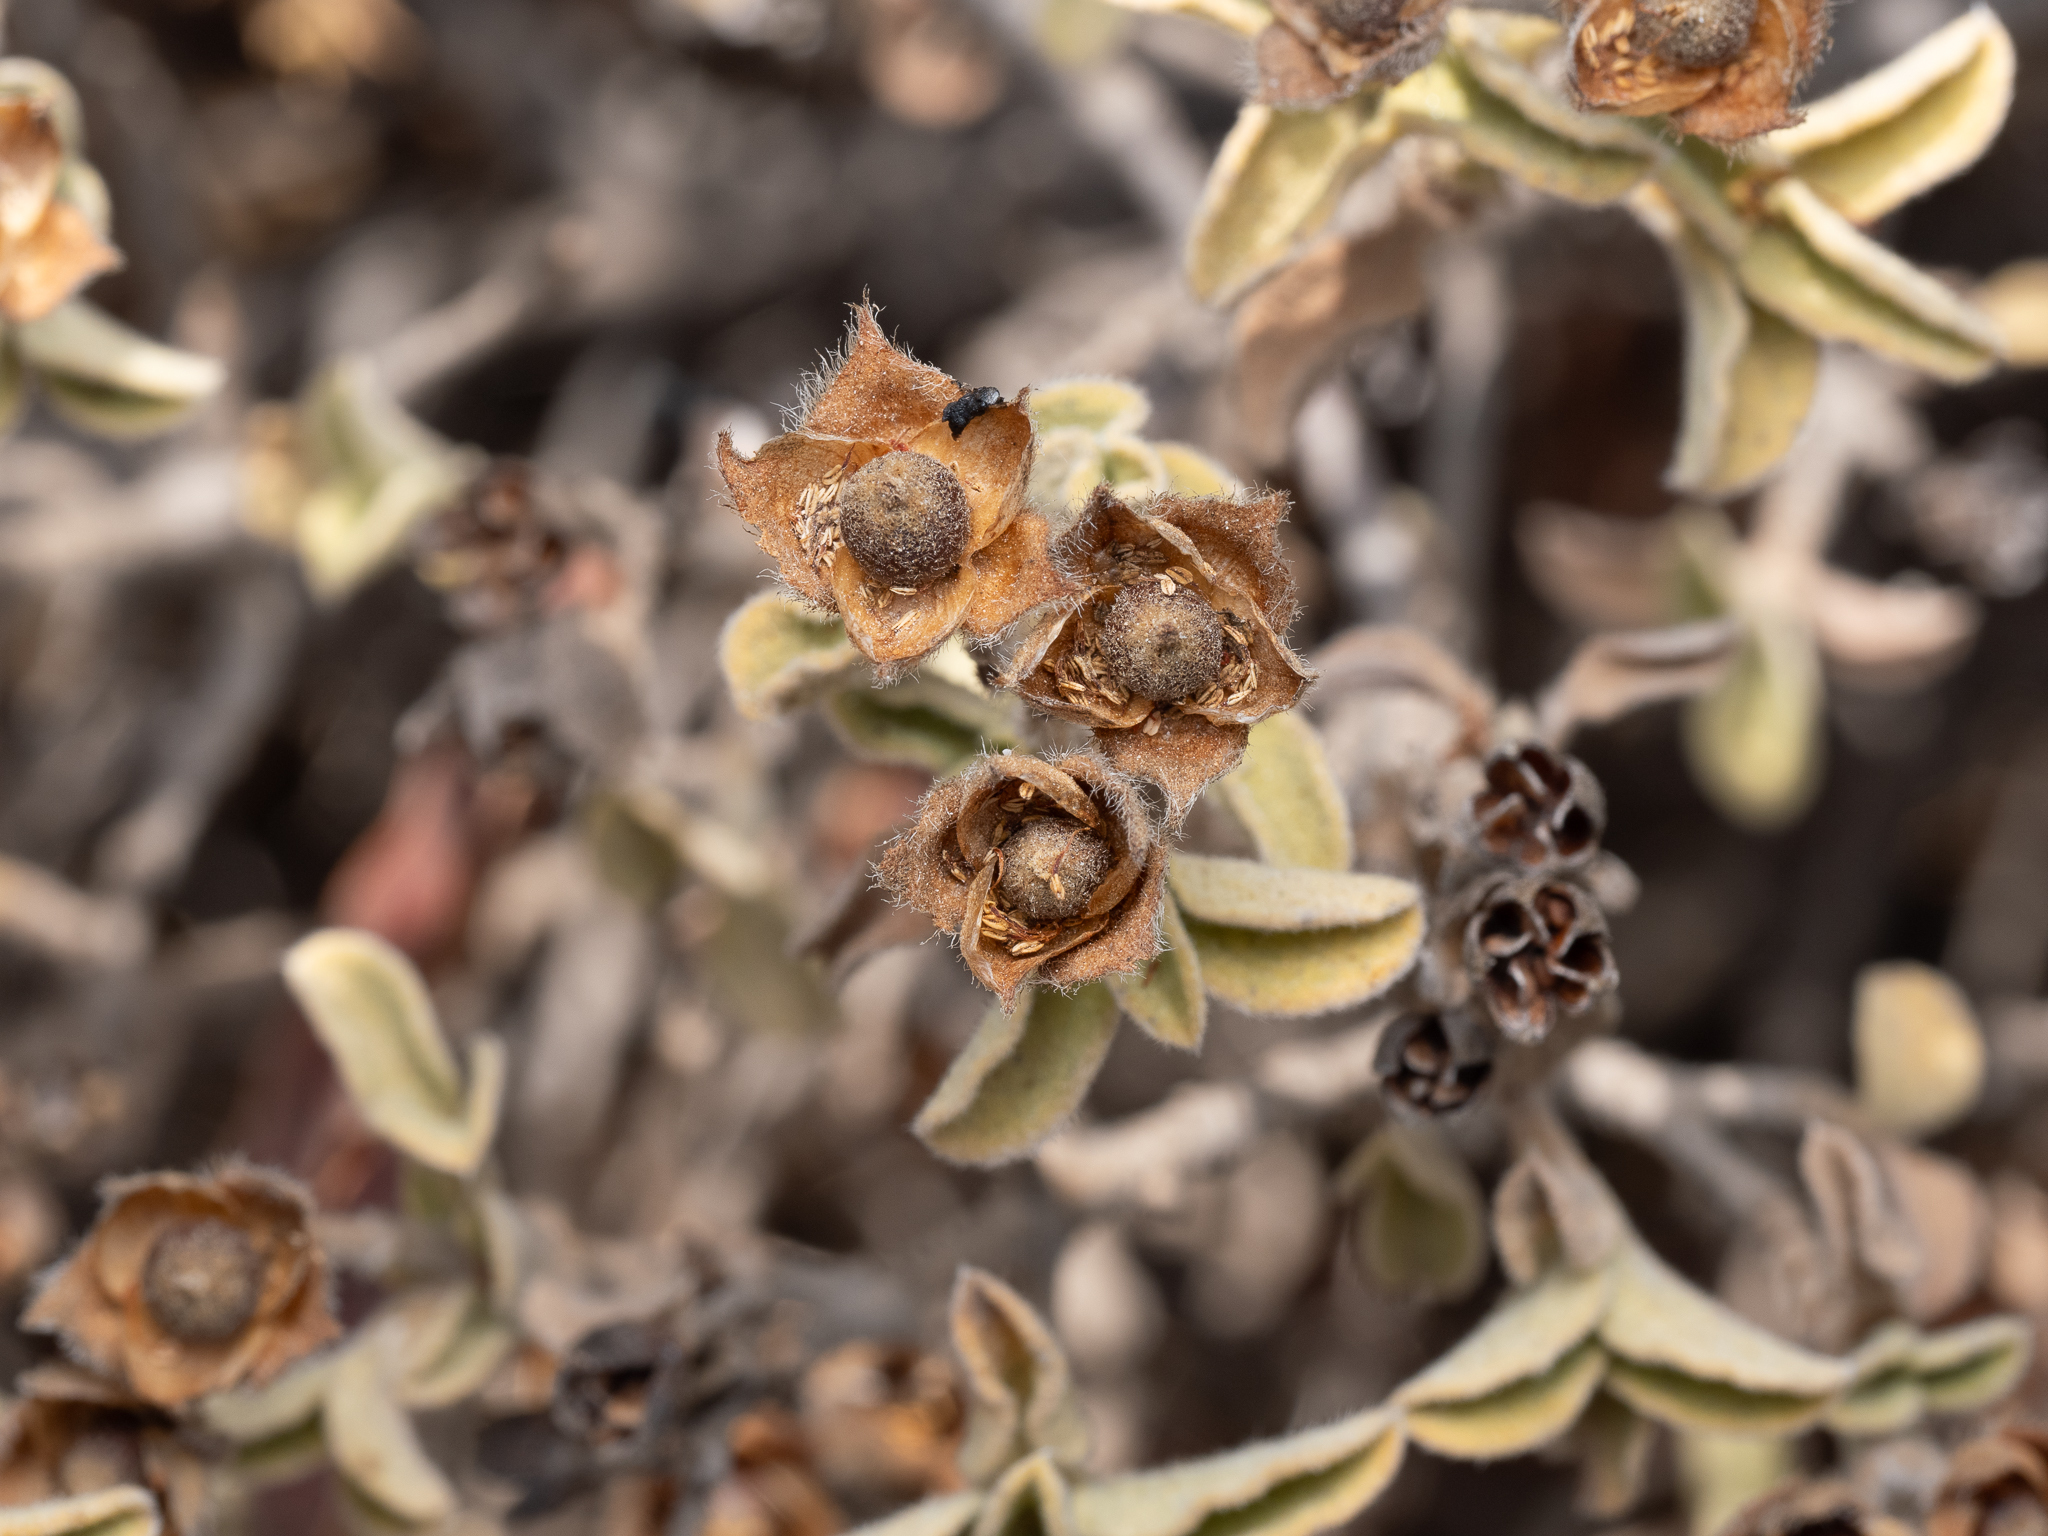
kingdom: Plantae
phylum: Tracheophyta
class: Magnoliopsida
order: Malvales
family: Cistaceae
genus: Cistus
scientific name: Cistus parviflorus
